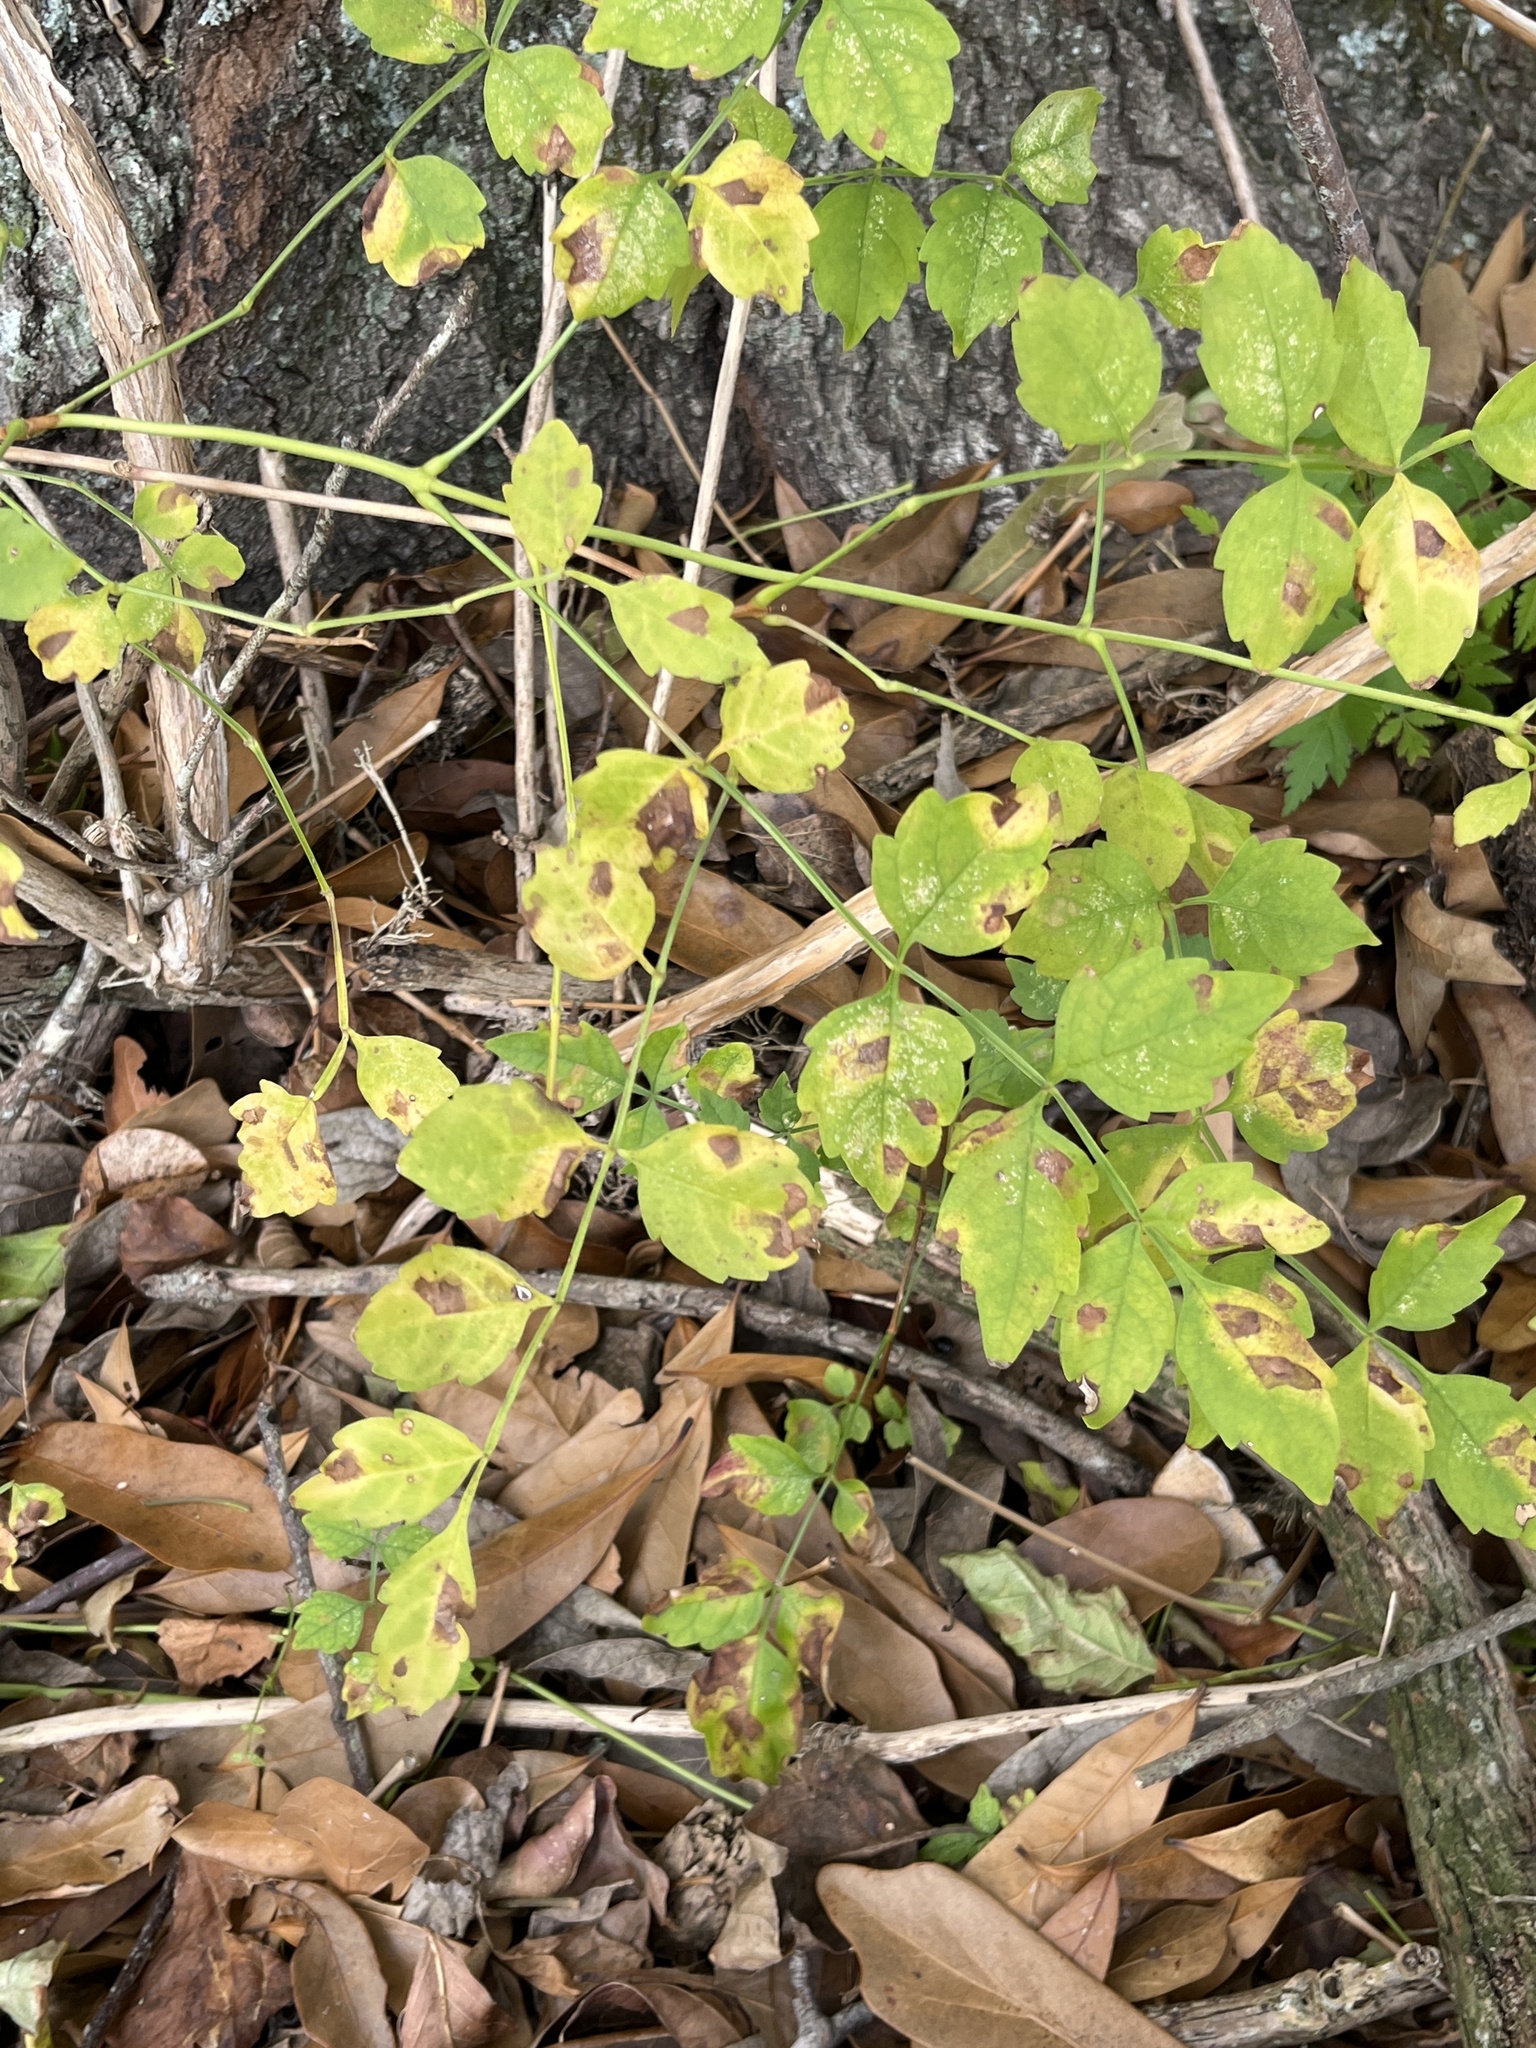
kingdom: Plantae
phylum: Tracheophyta
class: Magnoliopsida
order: Lamiales
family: Bignoniaceae
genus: Campsis
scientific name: Campsis radicans
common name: Trumpet-creeper
